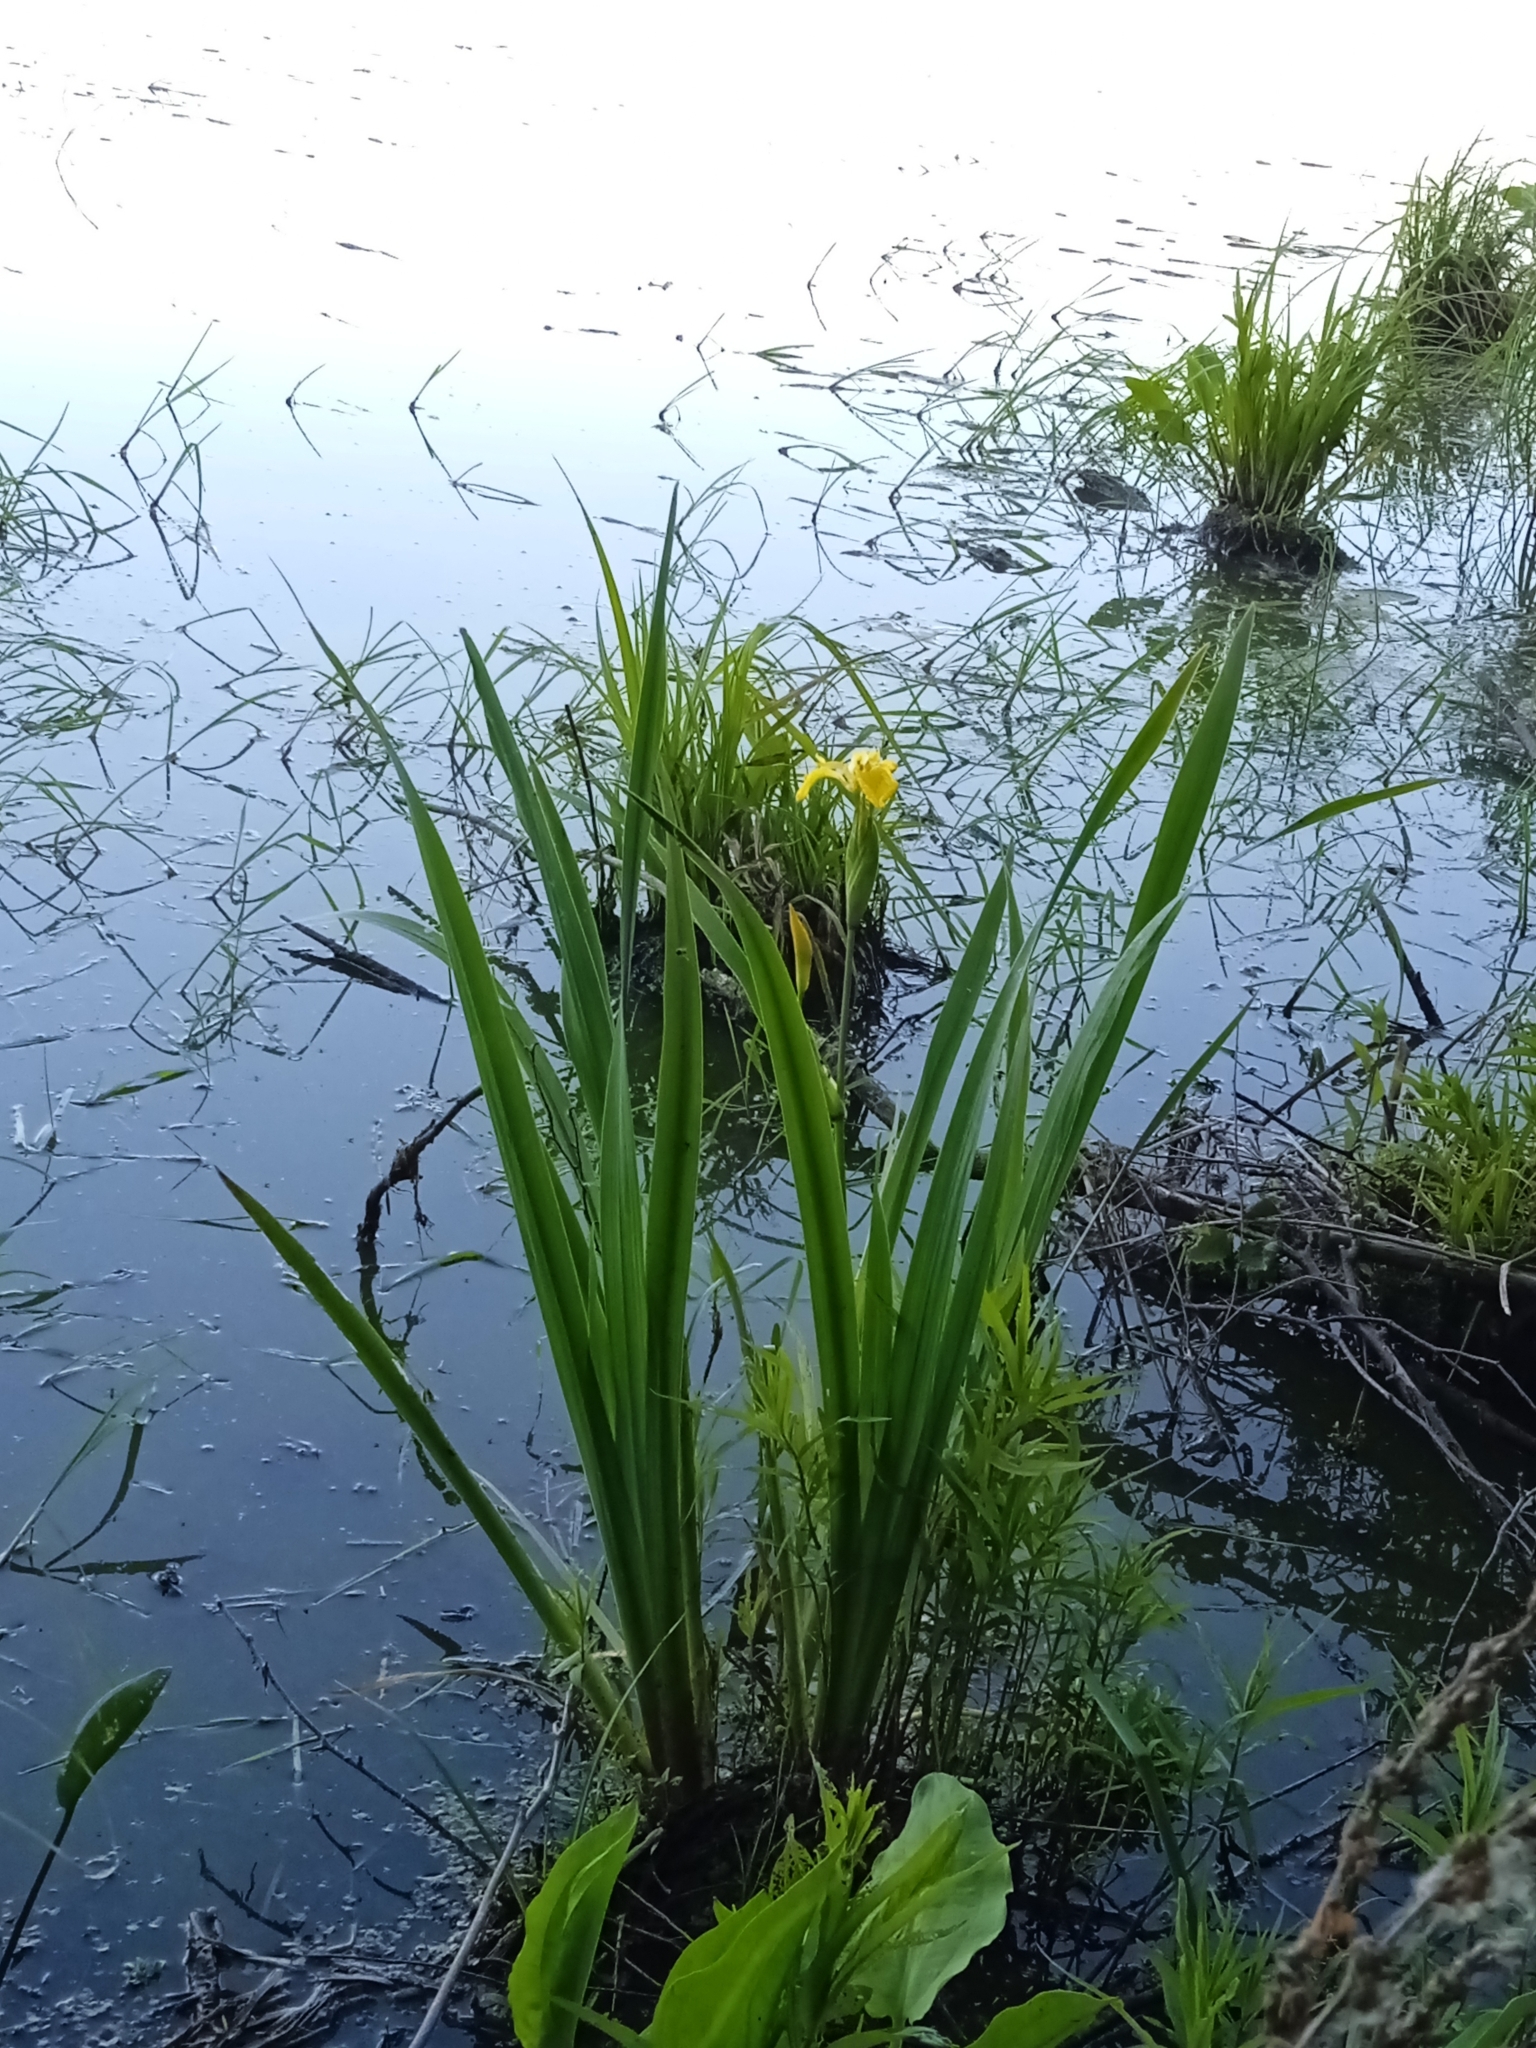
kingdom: Plantae
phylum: Tracheophyta
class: Liliopsida
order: Asparagales
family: Iridaceae
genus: Iris
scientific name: Iris pseudacorus
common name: Yellow flag
